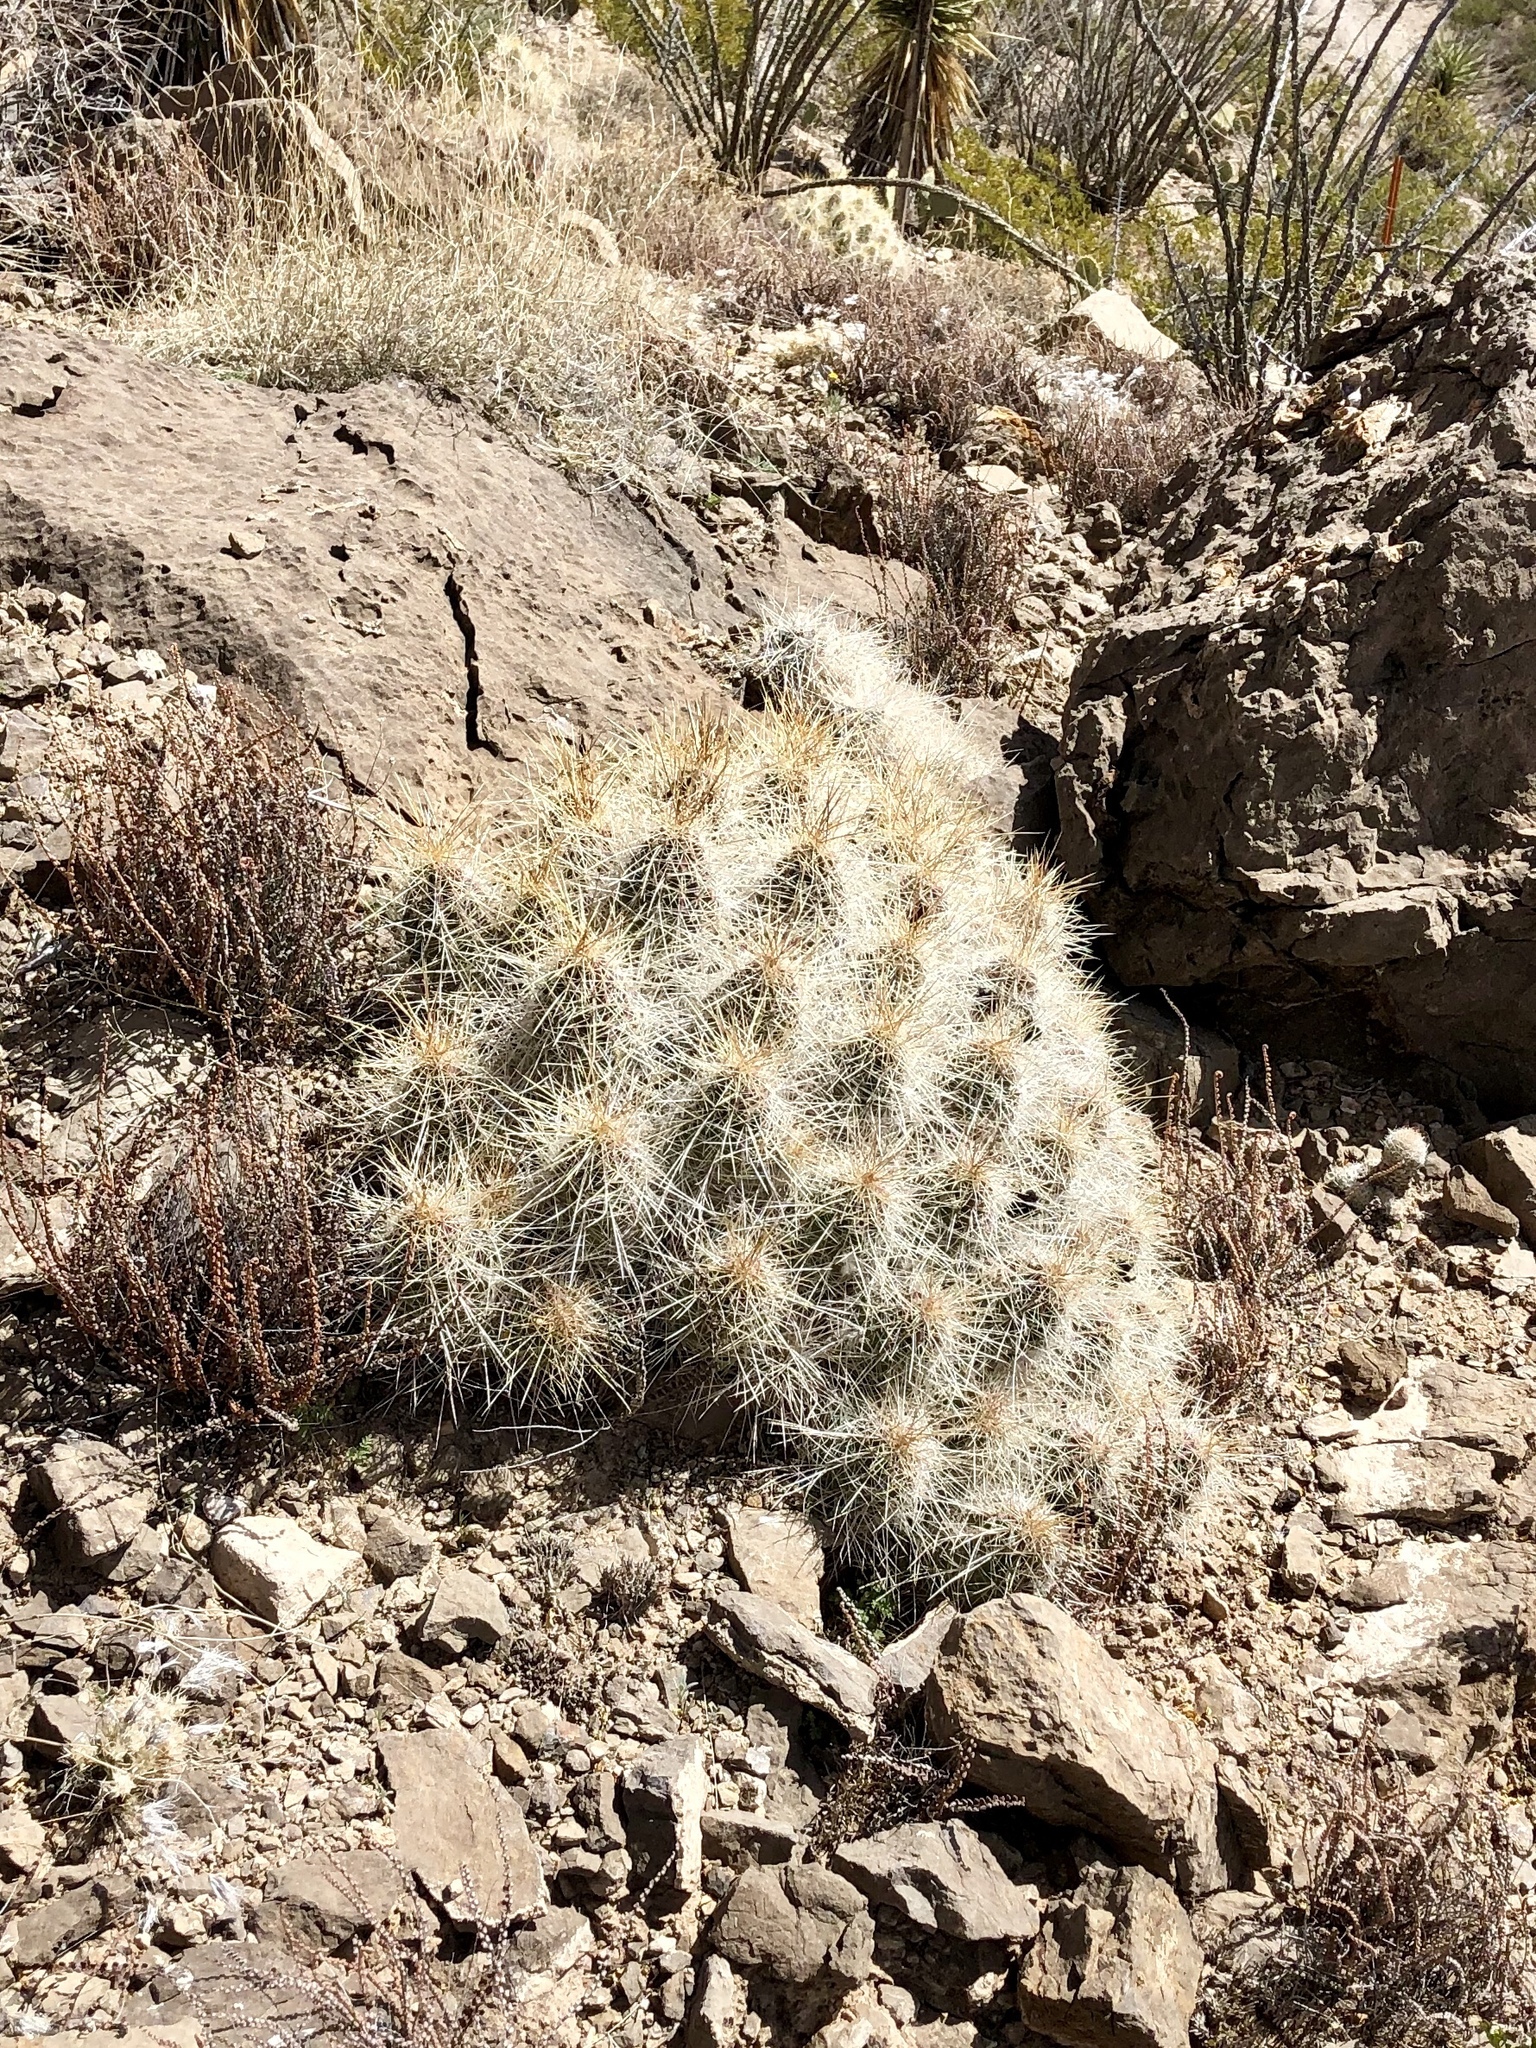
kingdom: Plantae
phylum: Tracheophyta
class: Magnoliopsida
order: Caryophyllales
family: Cactaceae
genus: Echinocereus
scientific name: Echinocereus stramineus
